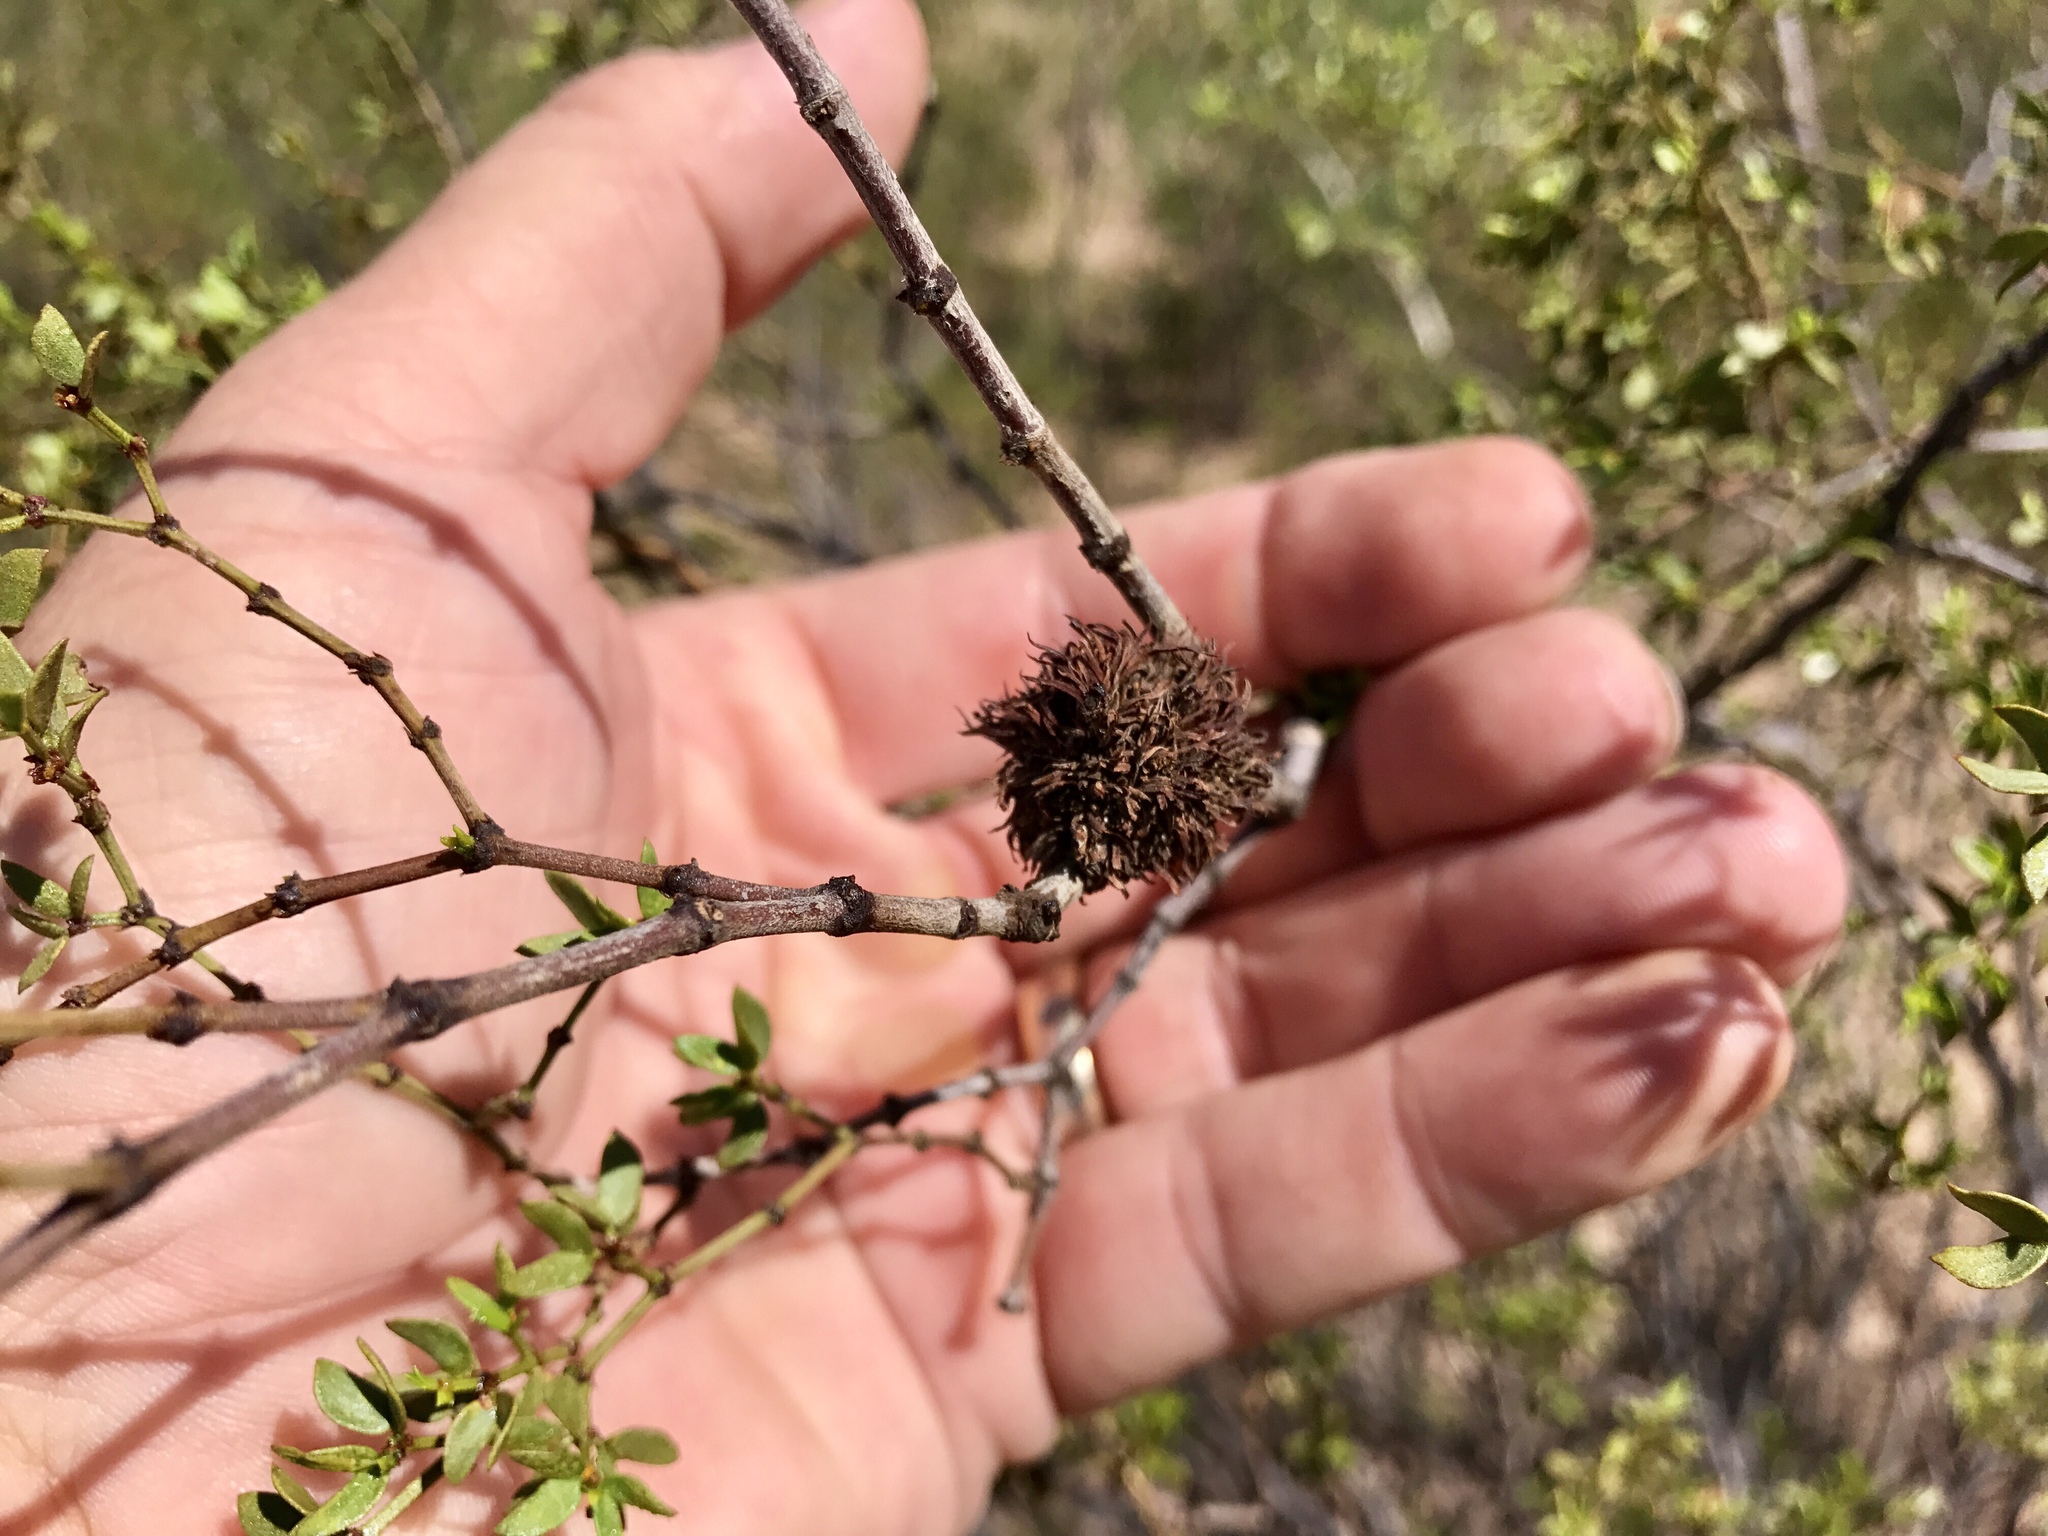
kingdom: Animalia
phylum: Arthropoda
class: Insecta
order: Diptera
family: Cecidomyiidae
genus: Asphondylia
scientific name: Asphondylia auripila
